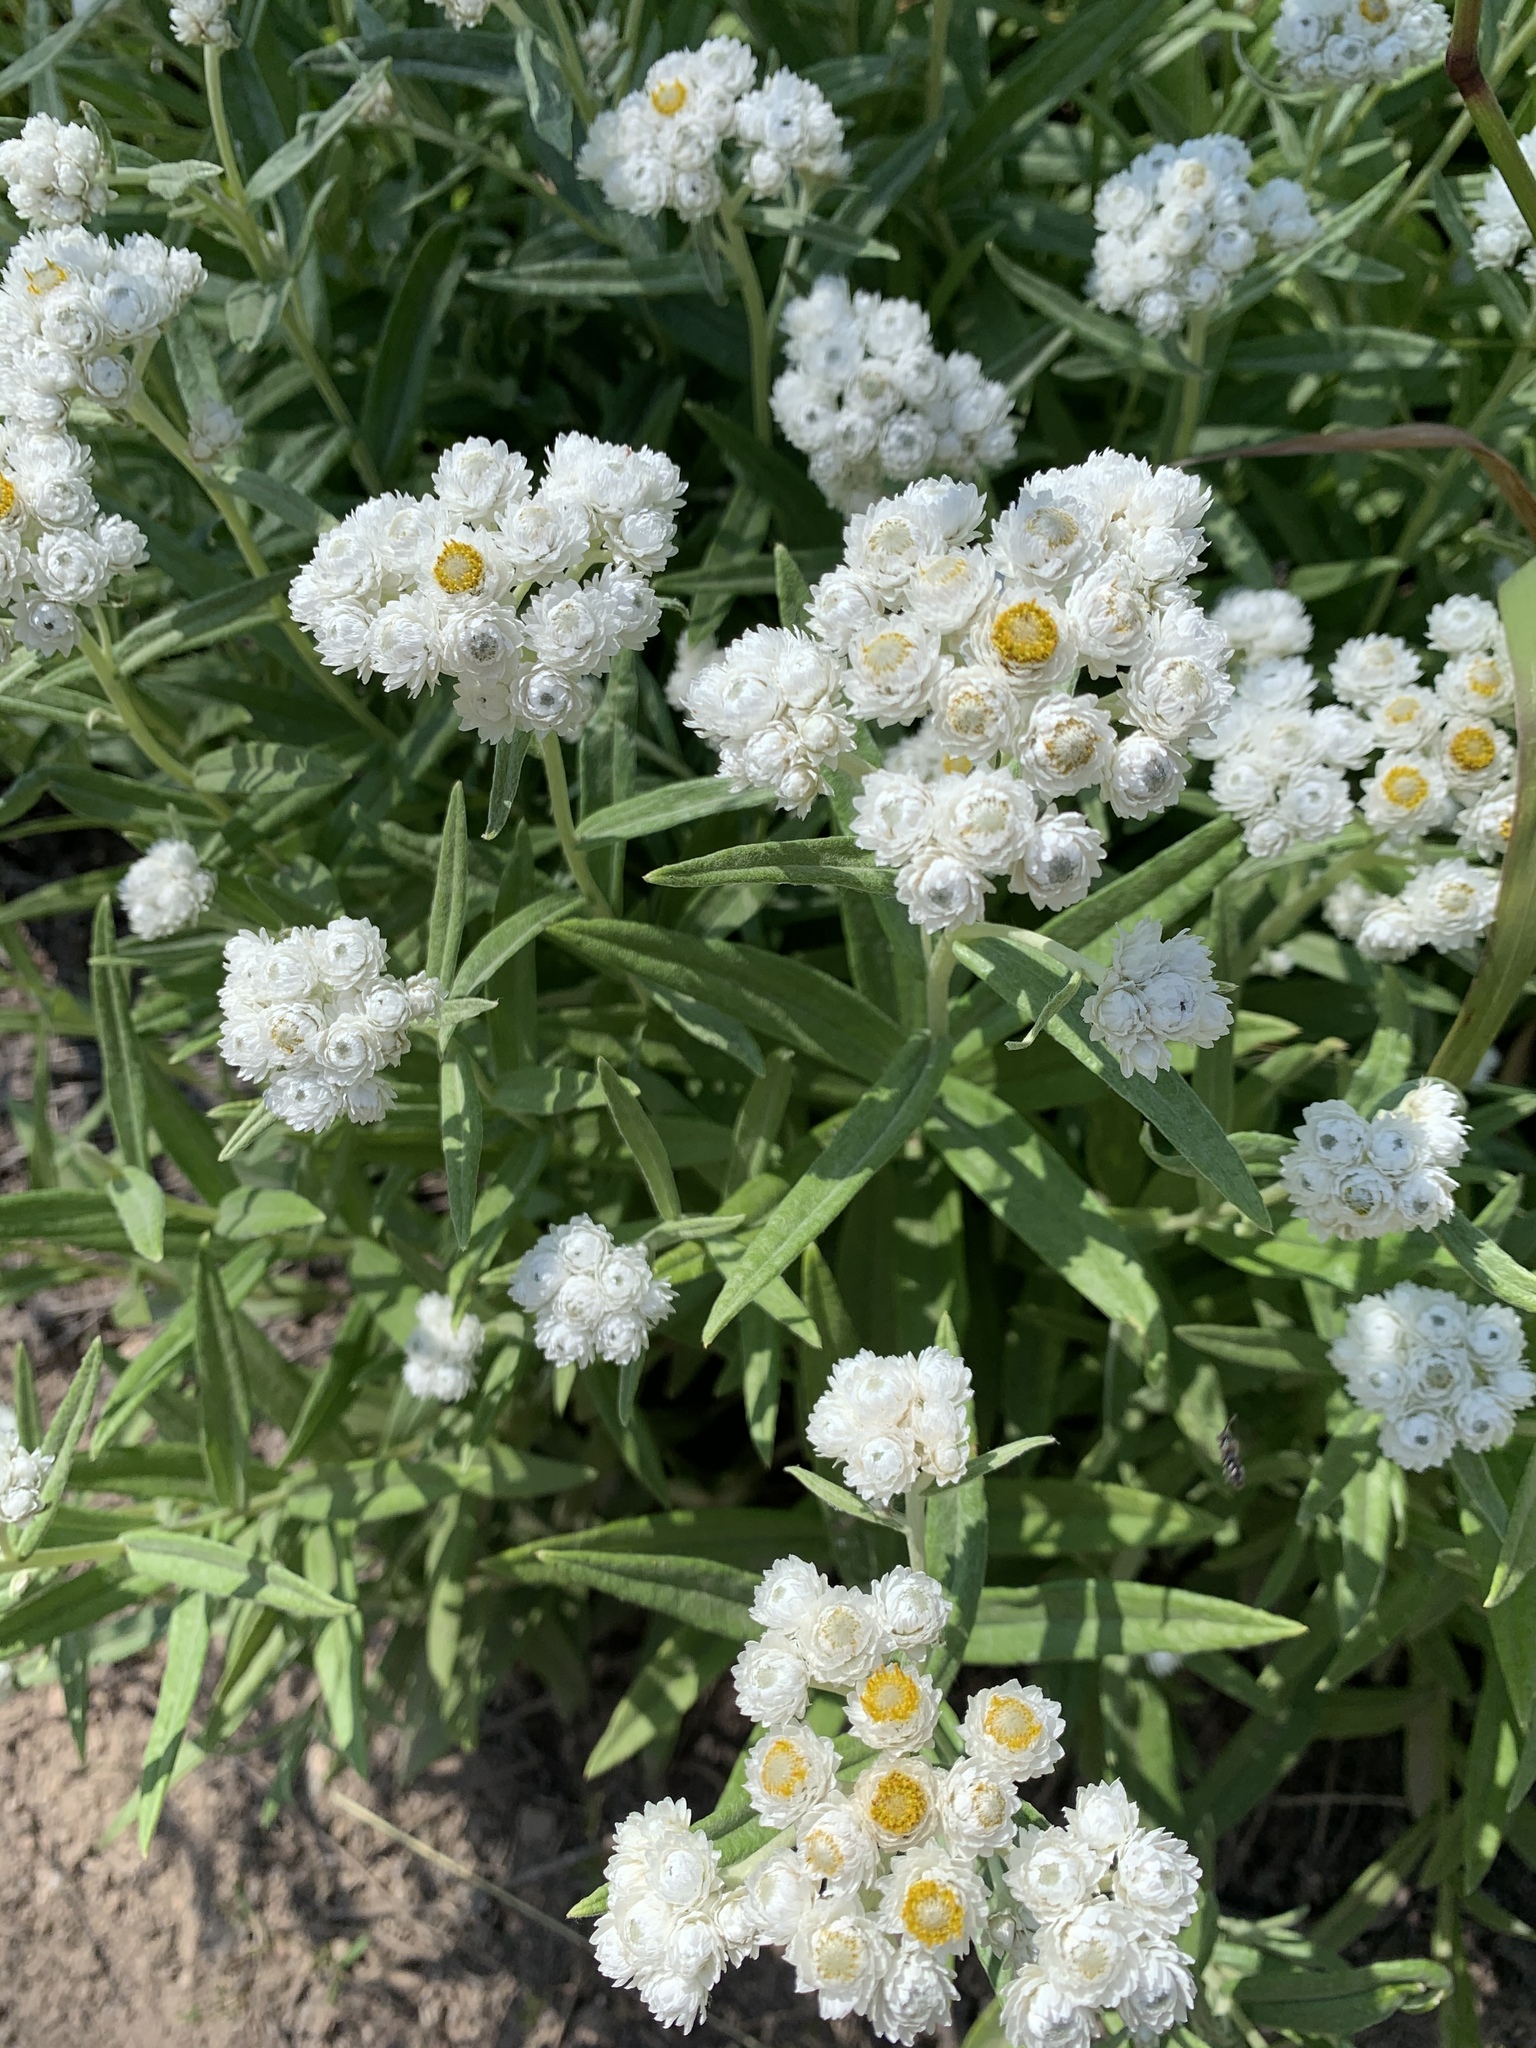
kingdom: Plantae
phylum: Tracheophyta
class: Magnoliopsida
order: Asterales
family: Asteraceae
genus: Anaphalis
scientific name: Anaphalis margaritacea
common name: Pearly everlasting
